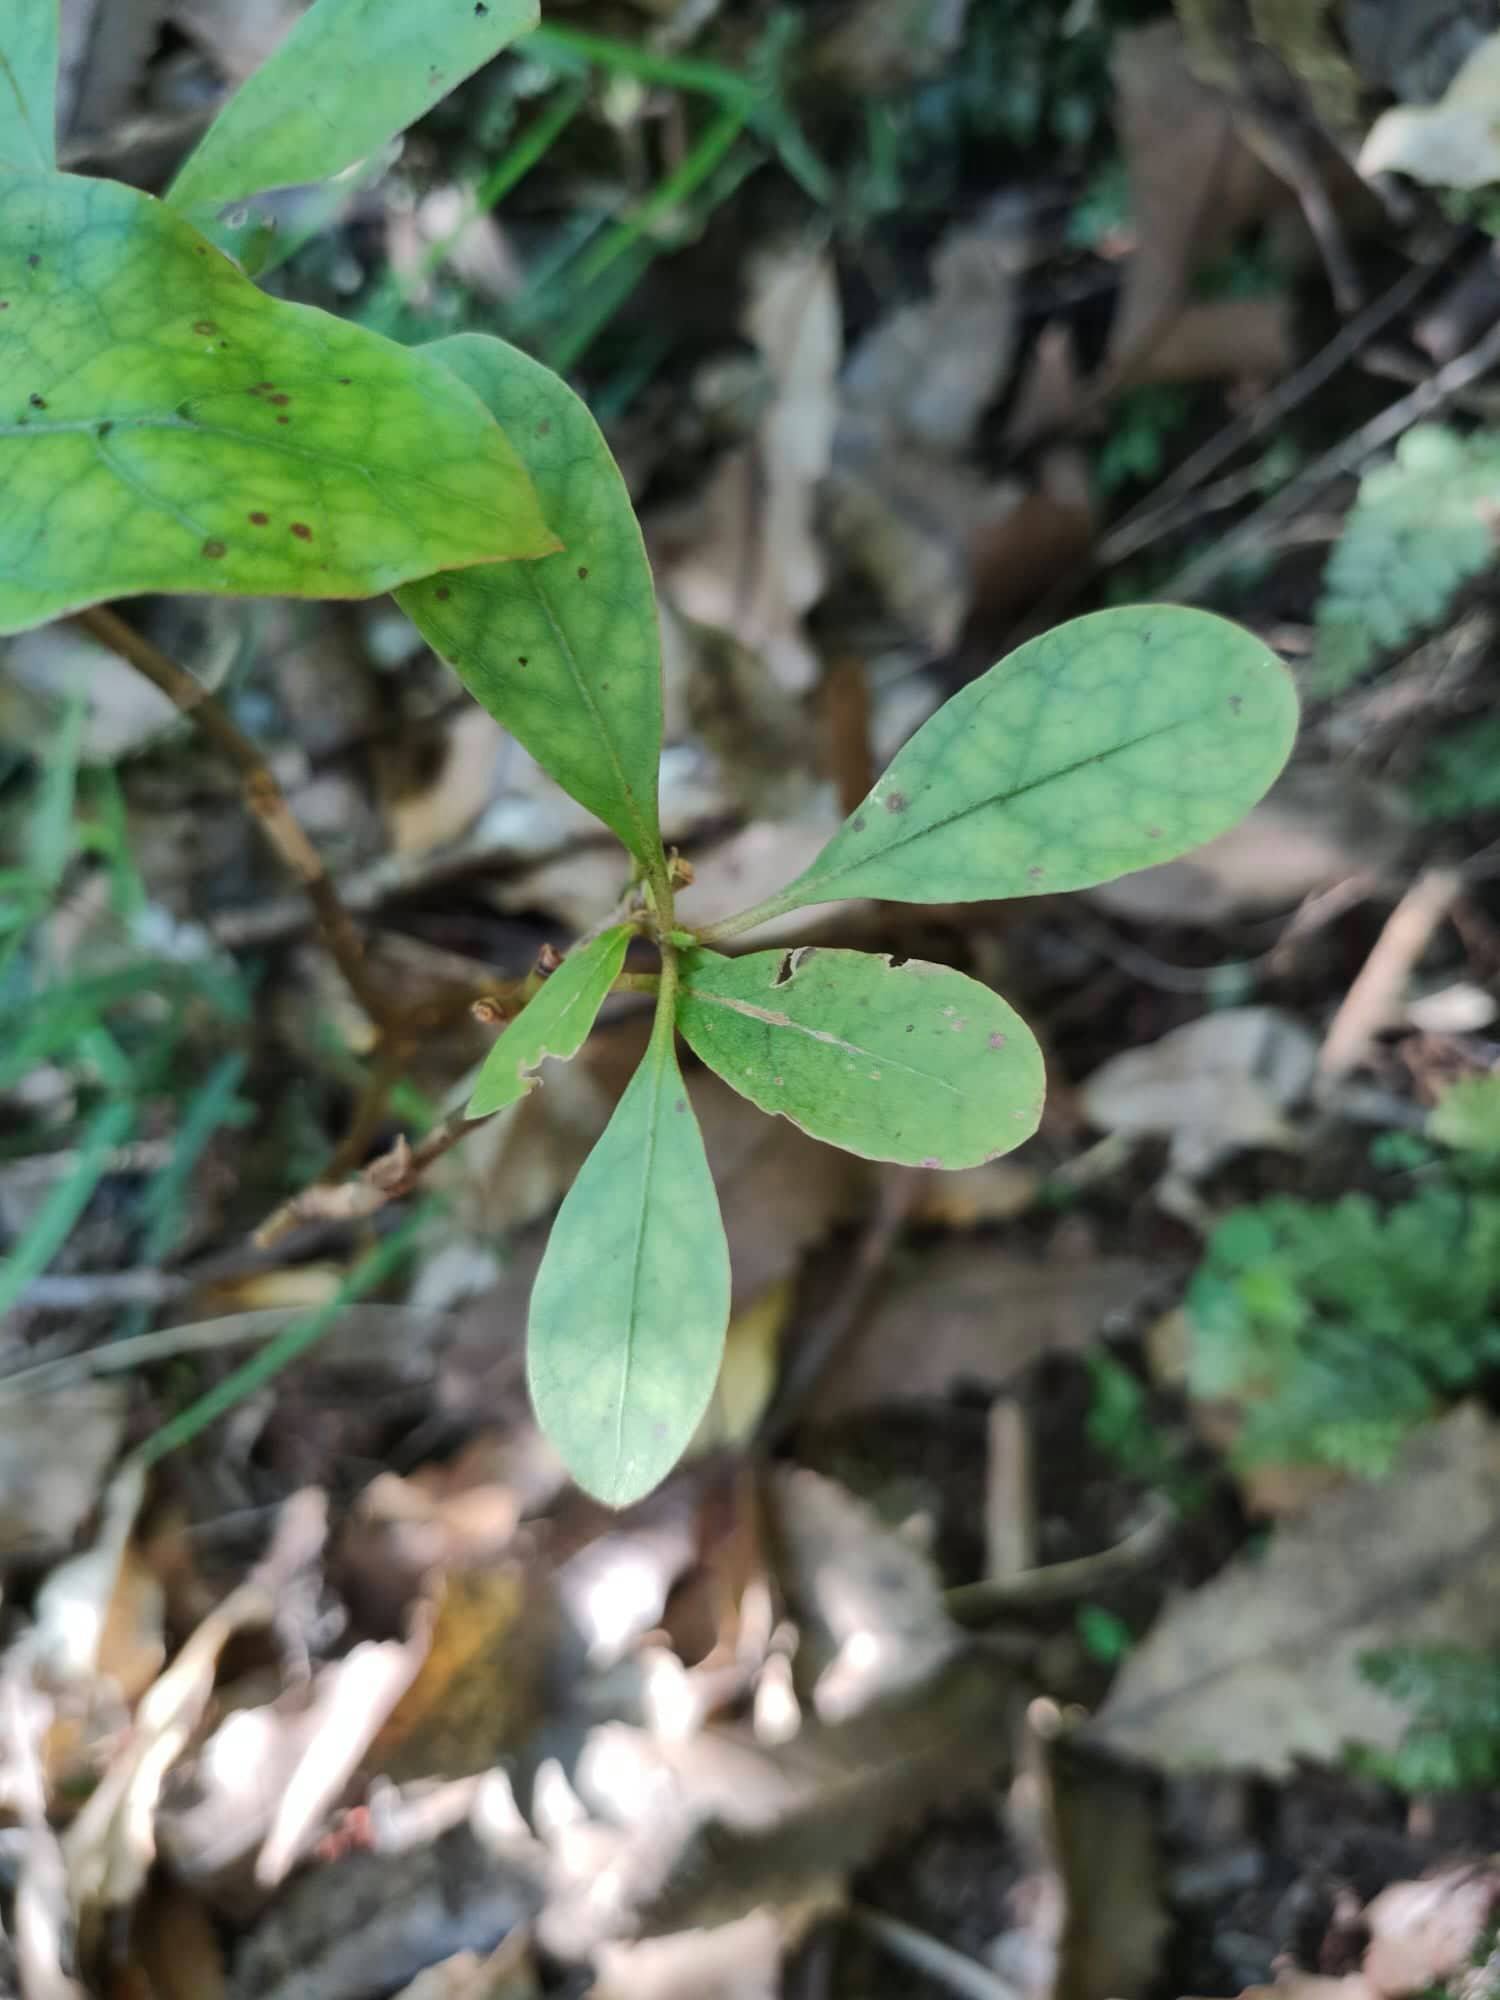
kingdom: Plantae
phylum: Tracheophyta
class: Magnoliopsida
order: Gentianales
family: Rubiaceae
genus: Coprosma
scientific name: Coprosma autumnalis
